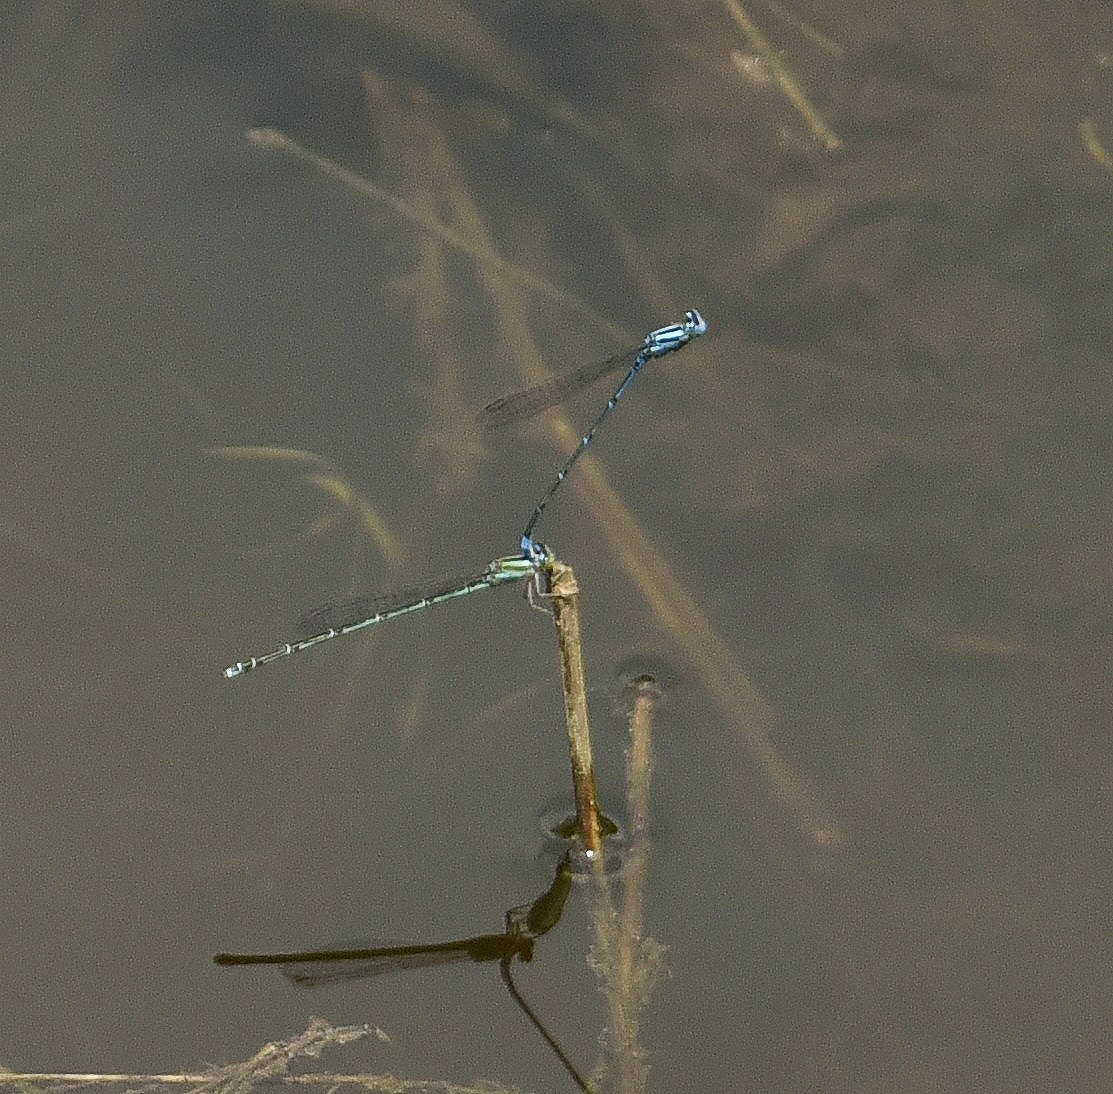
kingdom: Animalia
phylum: Arthropoda
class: Insecta
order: Odonata
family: Coenagrionidae
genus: Pseudagrion
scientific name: Pseudagrion malabaricum
